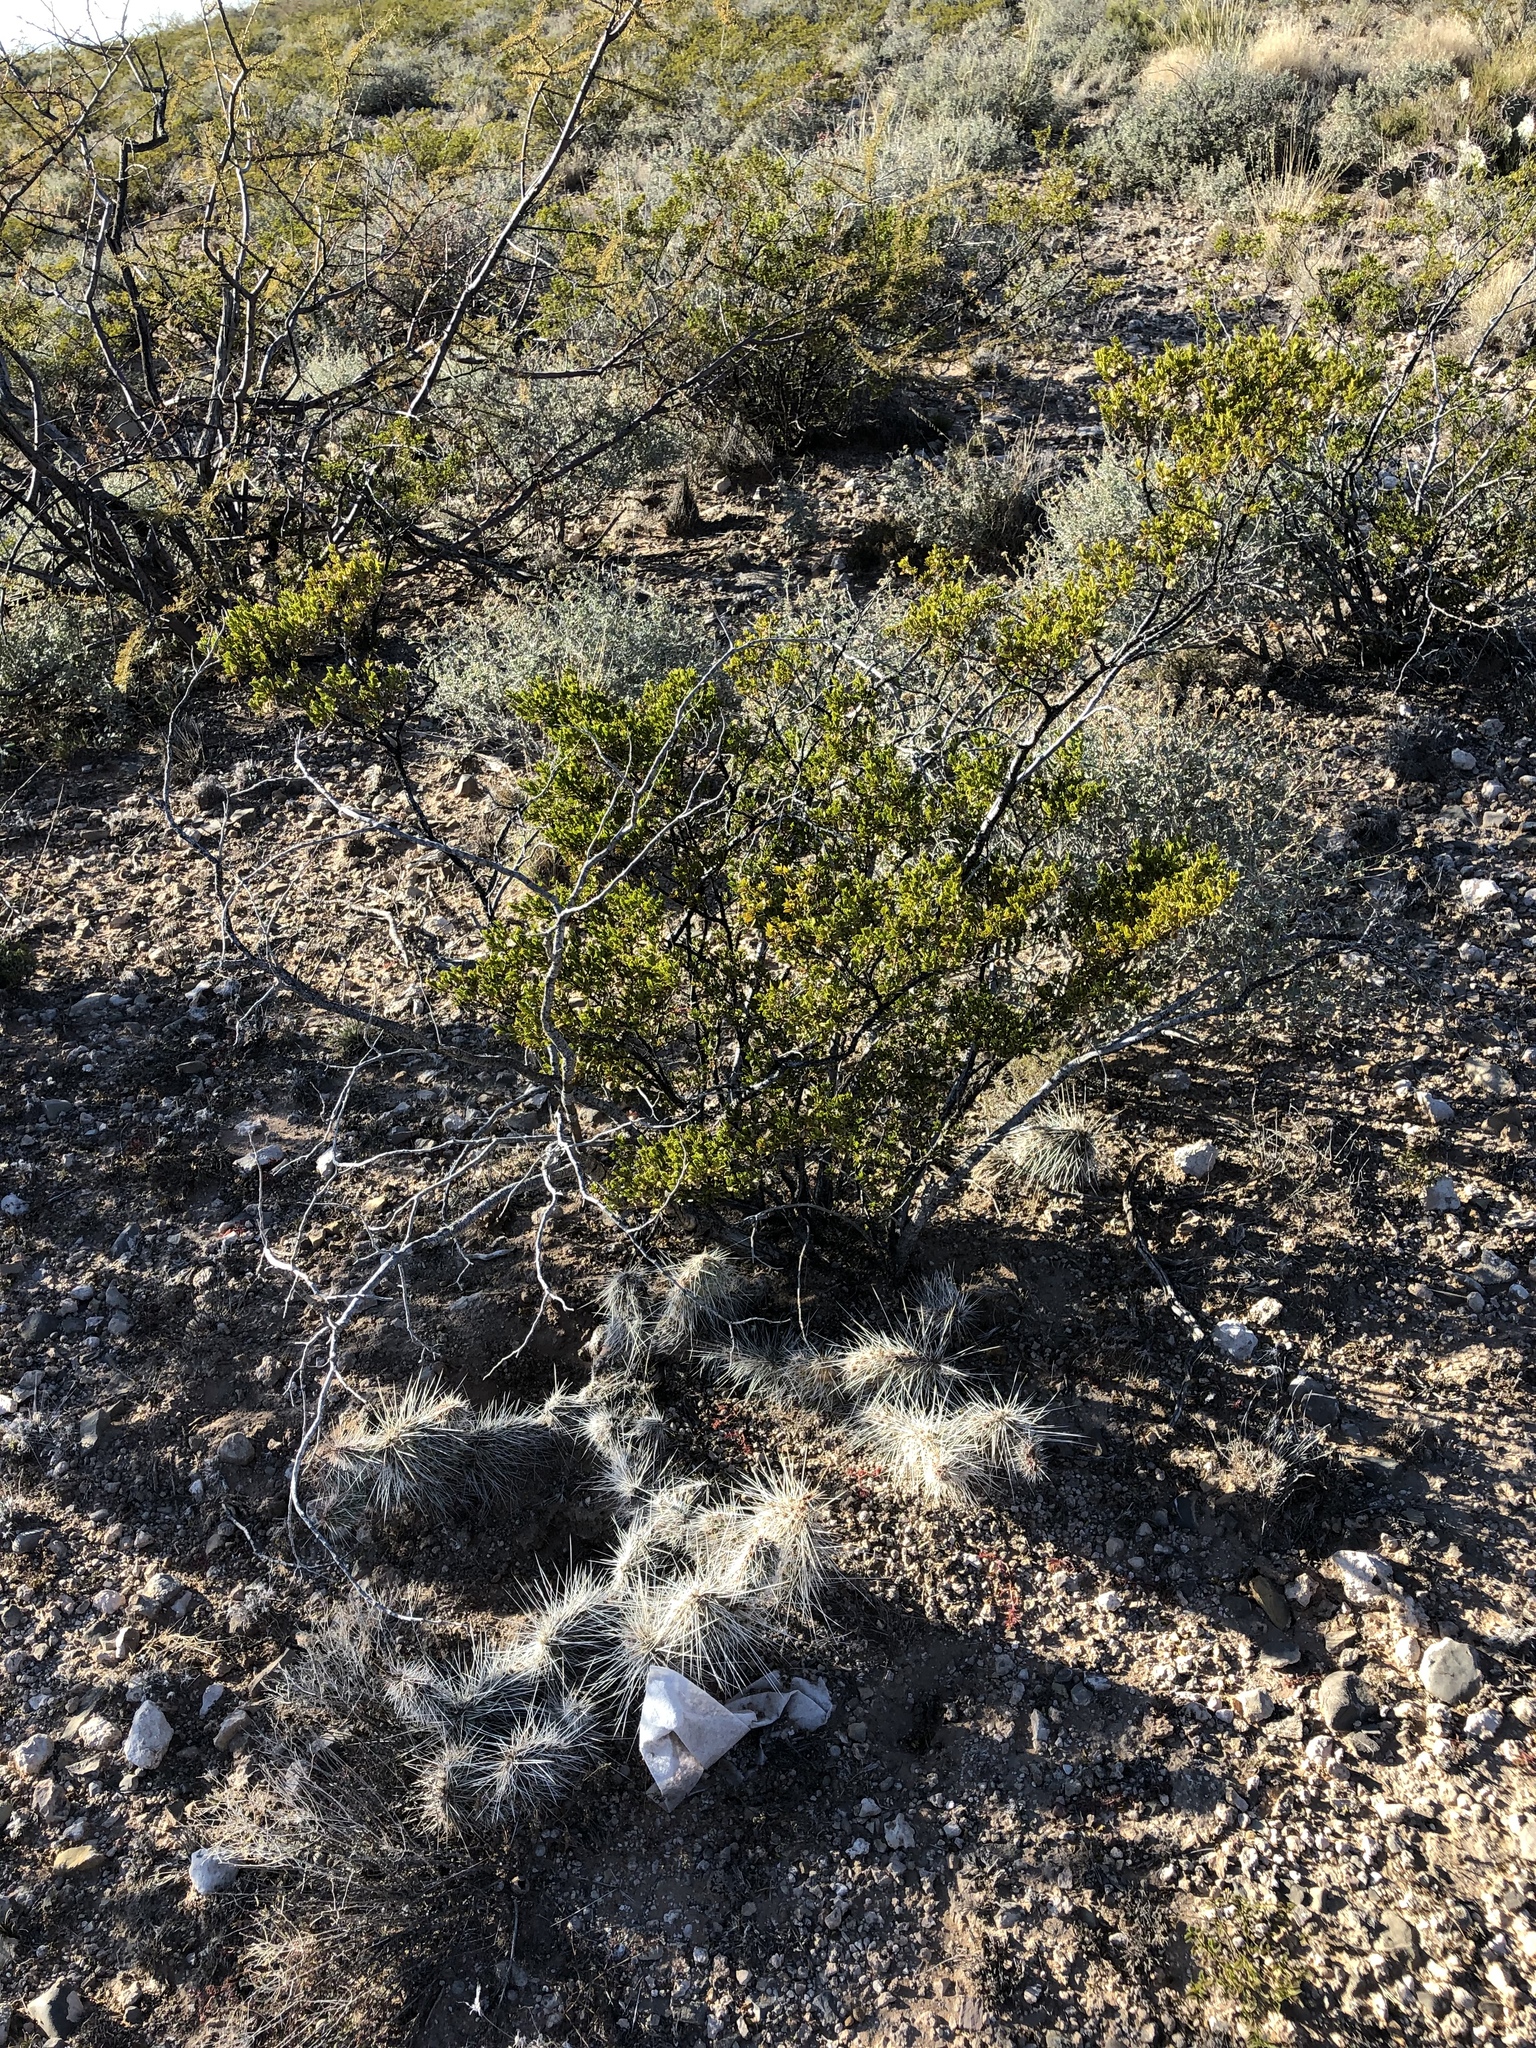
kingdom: Plantae
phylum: Tracheophyta
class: Magnoliopsida
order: Zygophyllales
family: Zygophyllaceae
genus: Larrea
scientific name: Larrea tridentata
